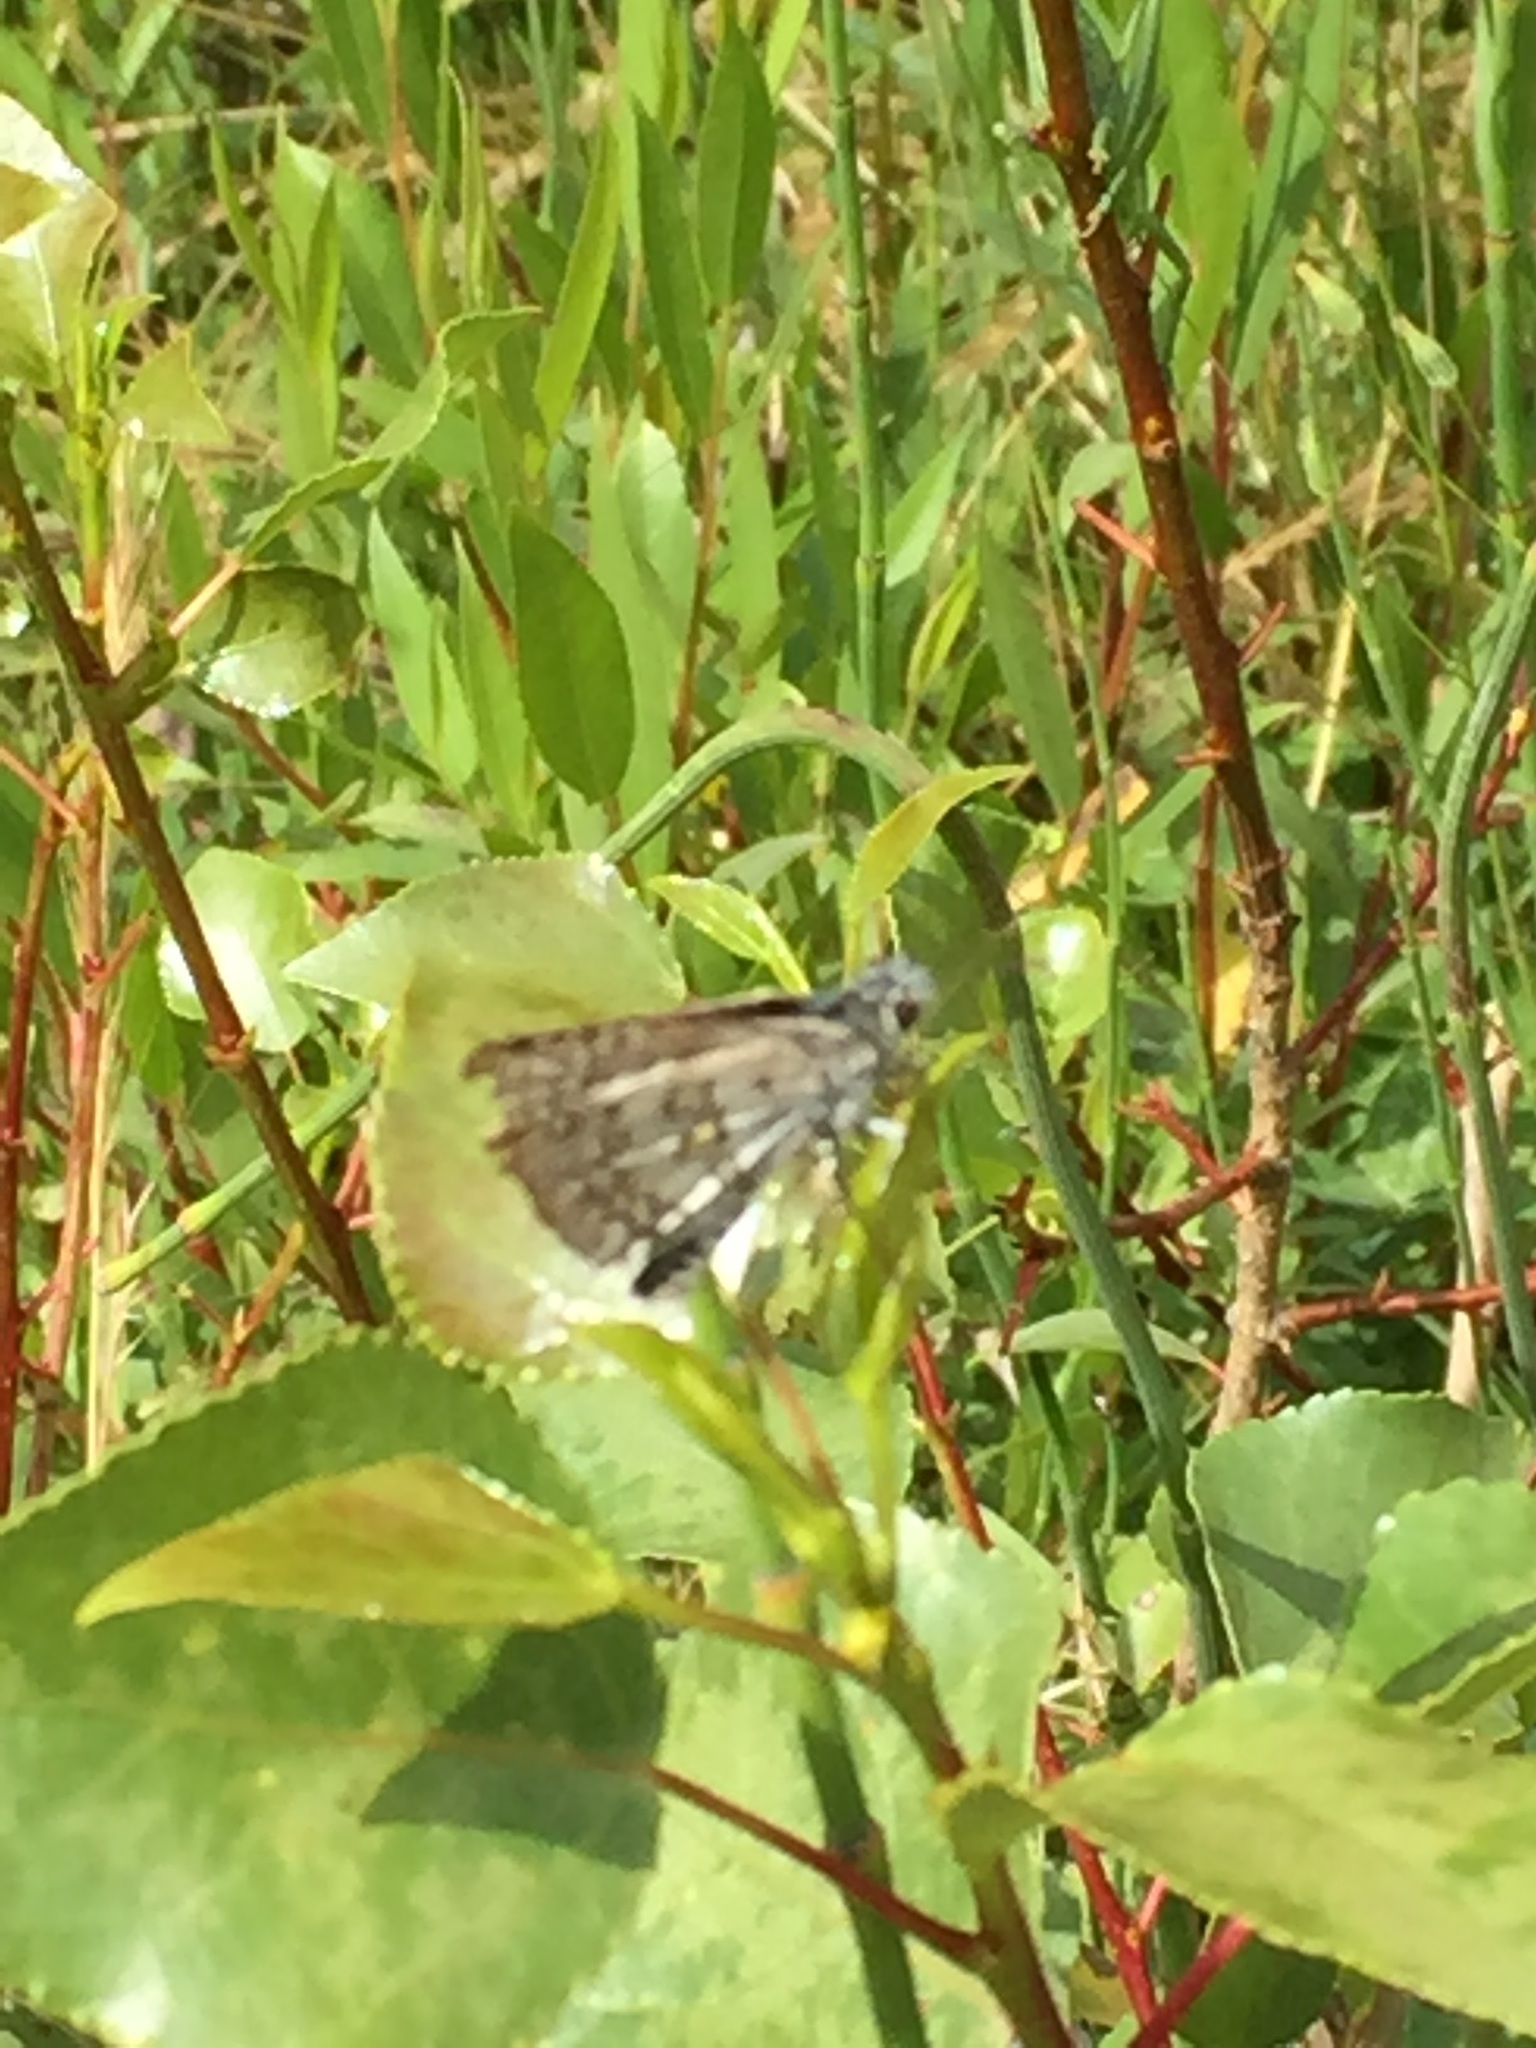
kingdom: Animalia
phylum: Arthropoda
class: Insecta
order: Lepidoptera
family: Hesperiidae
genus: Pyrgus
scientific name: Pyrgus sidae
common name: Yellow-banded skipper
